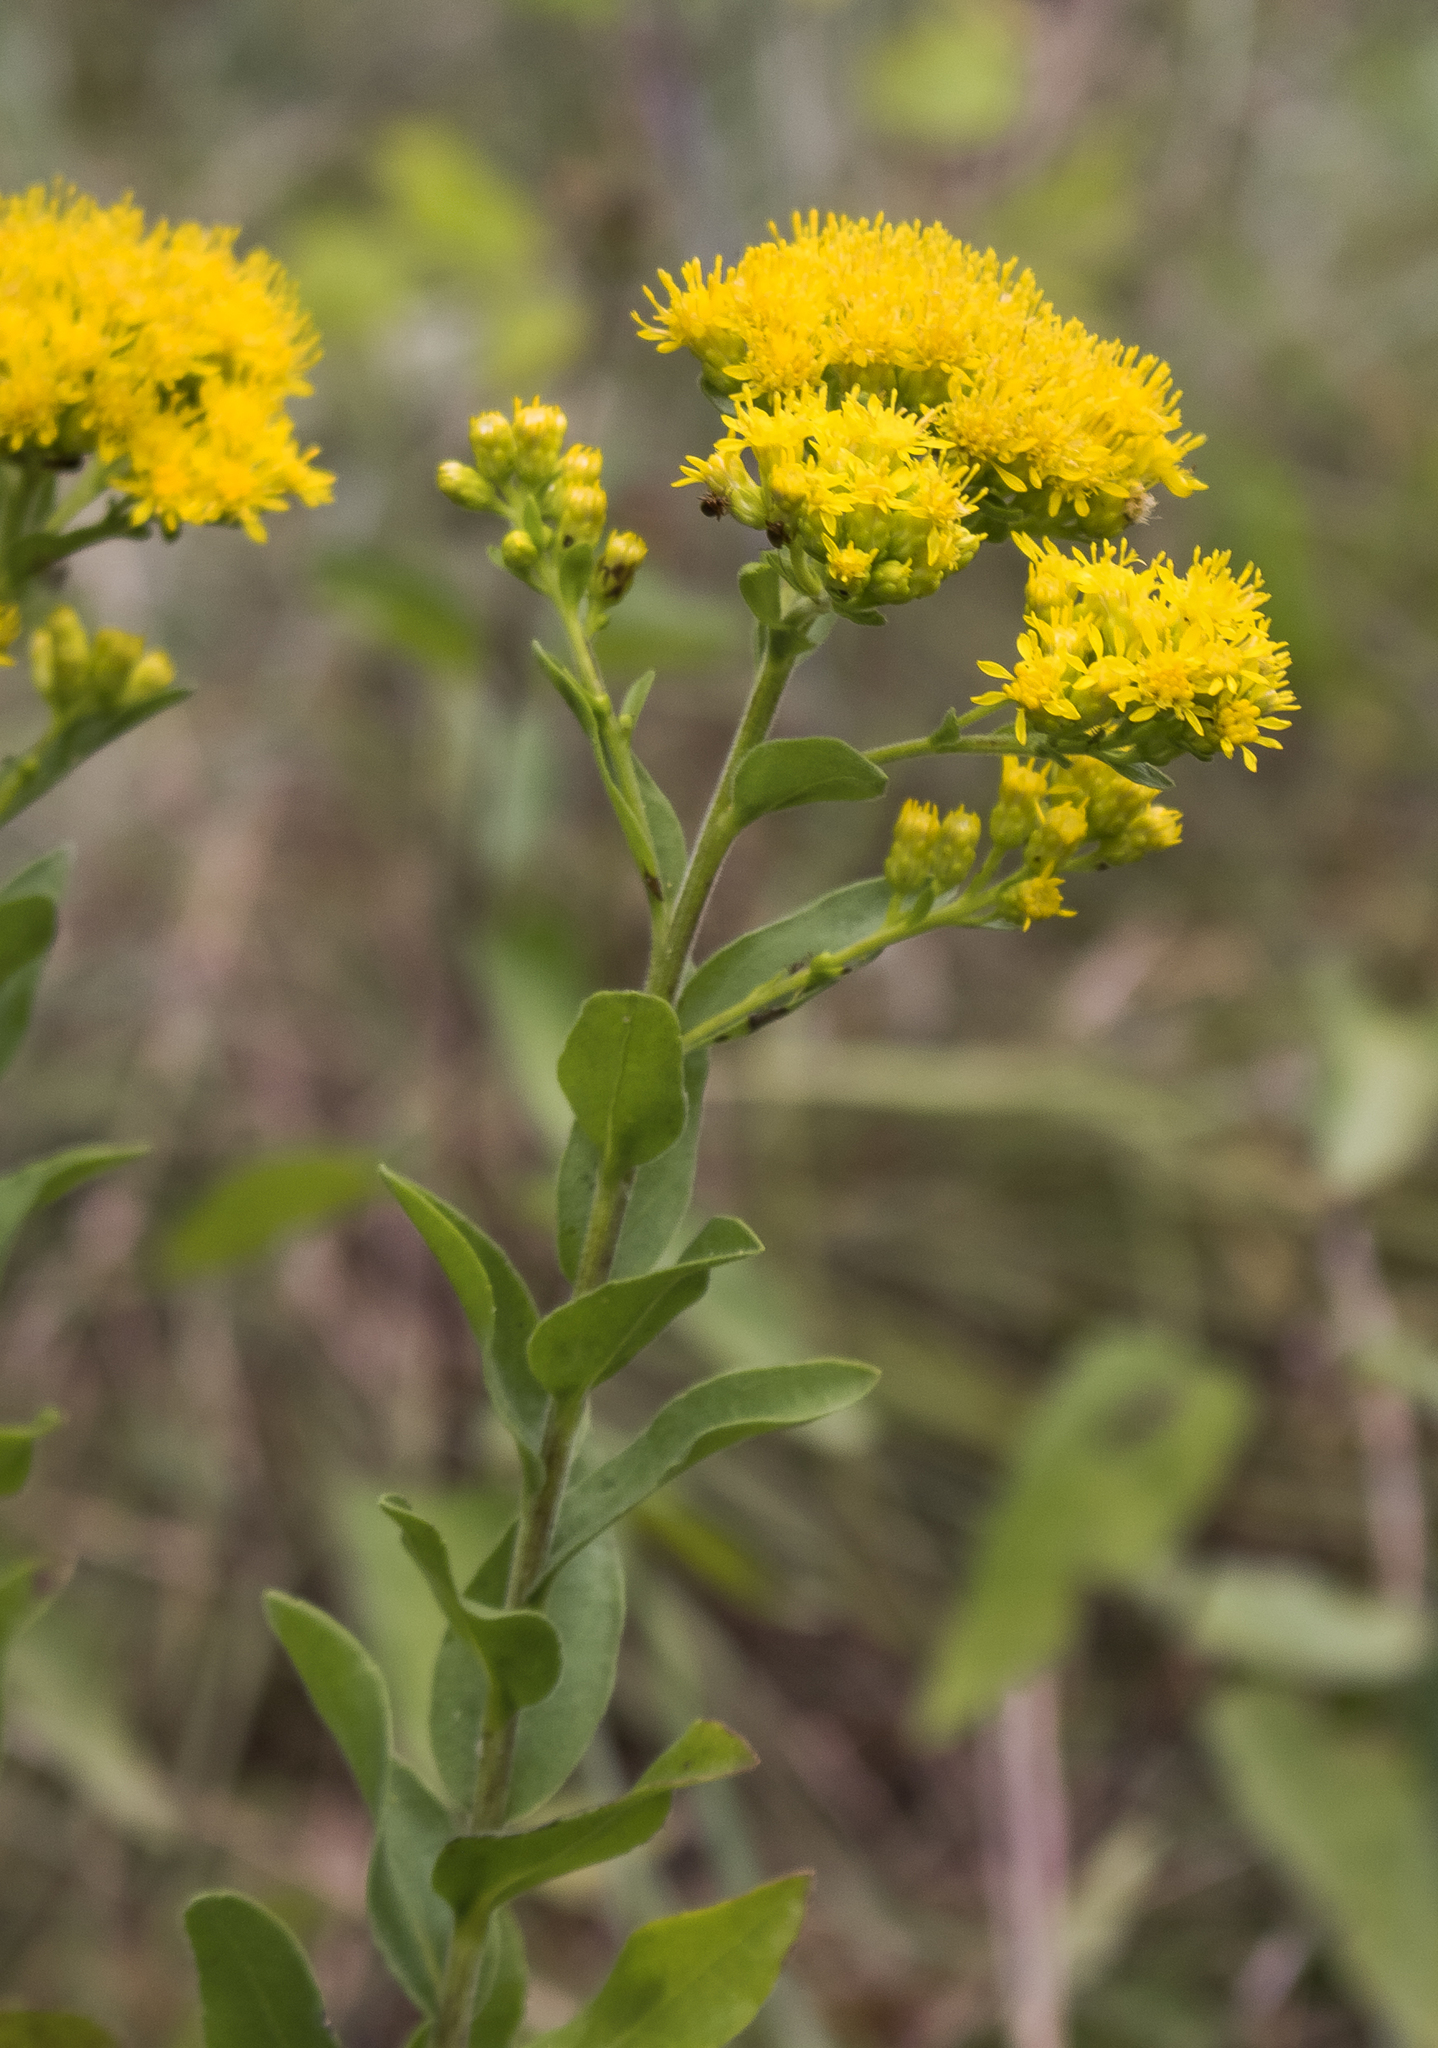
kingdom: Plantae
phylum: Tracheophyta
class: Magnoliopsida
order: Asterales
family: Asteraceae
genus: Solidago
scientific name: Solidago rigida
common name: Rigid goldenrod
